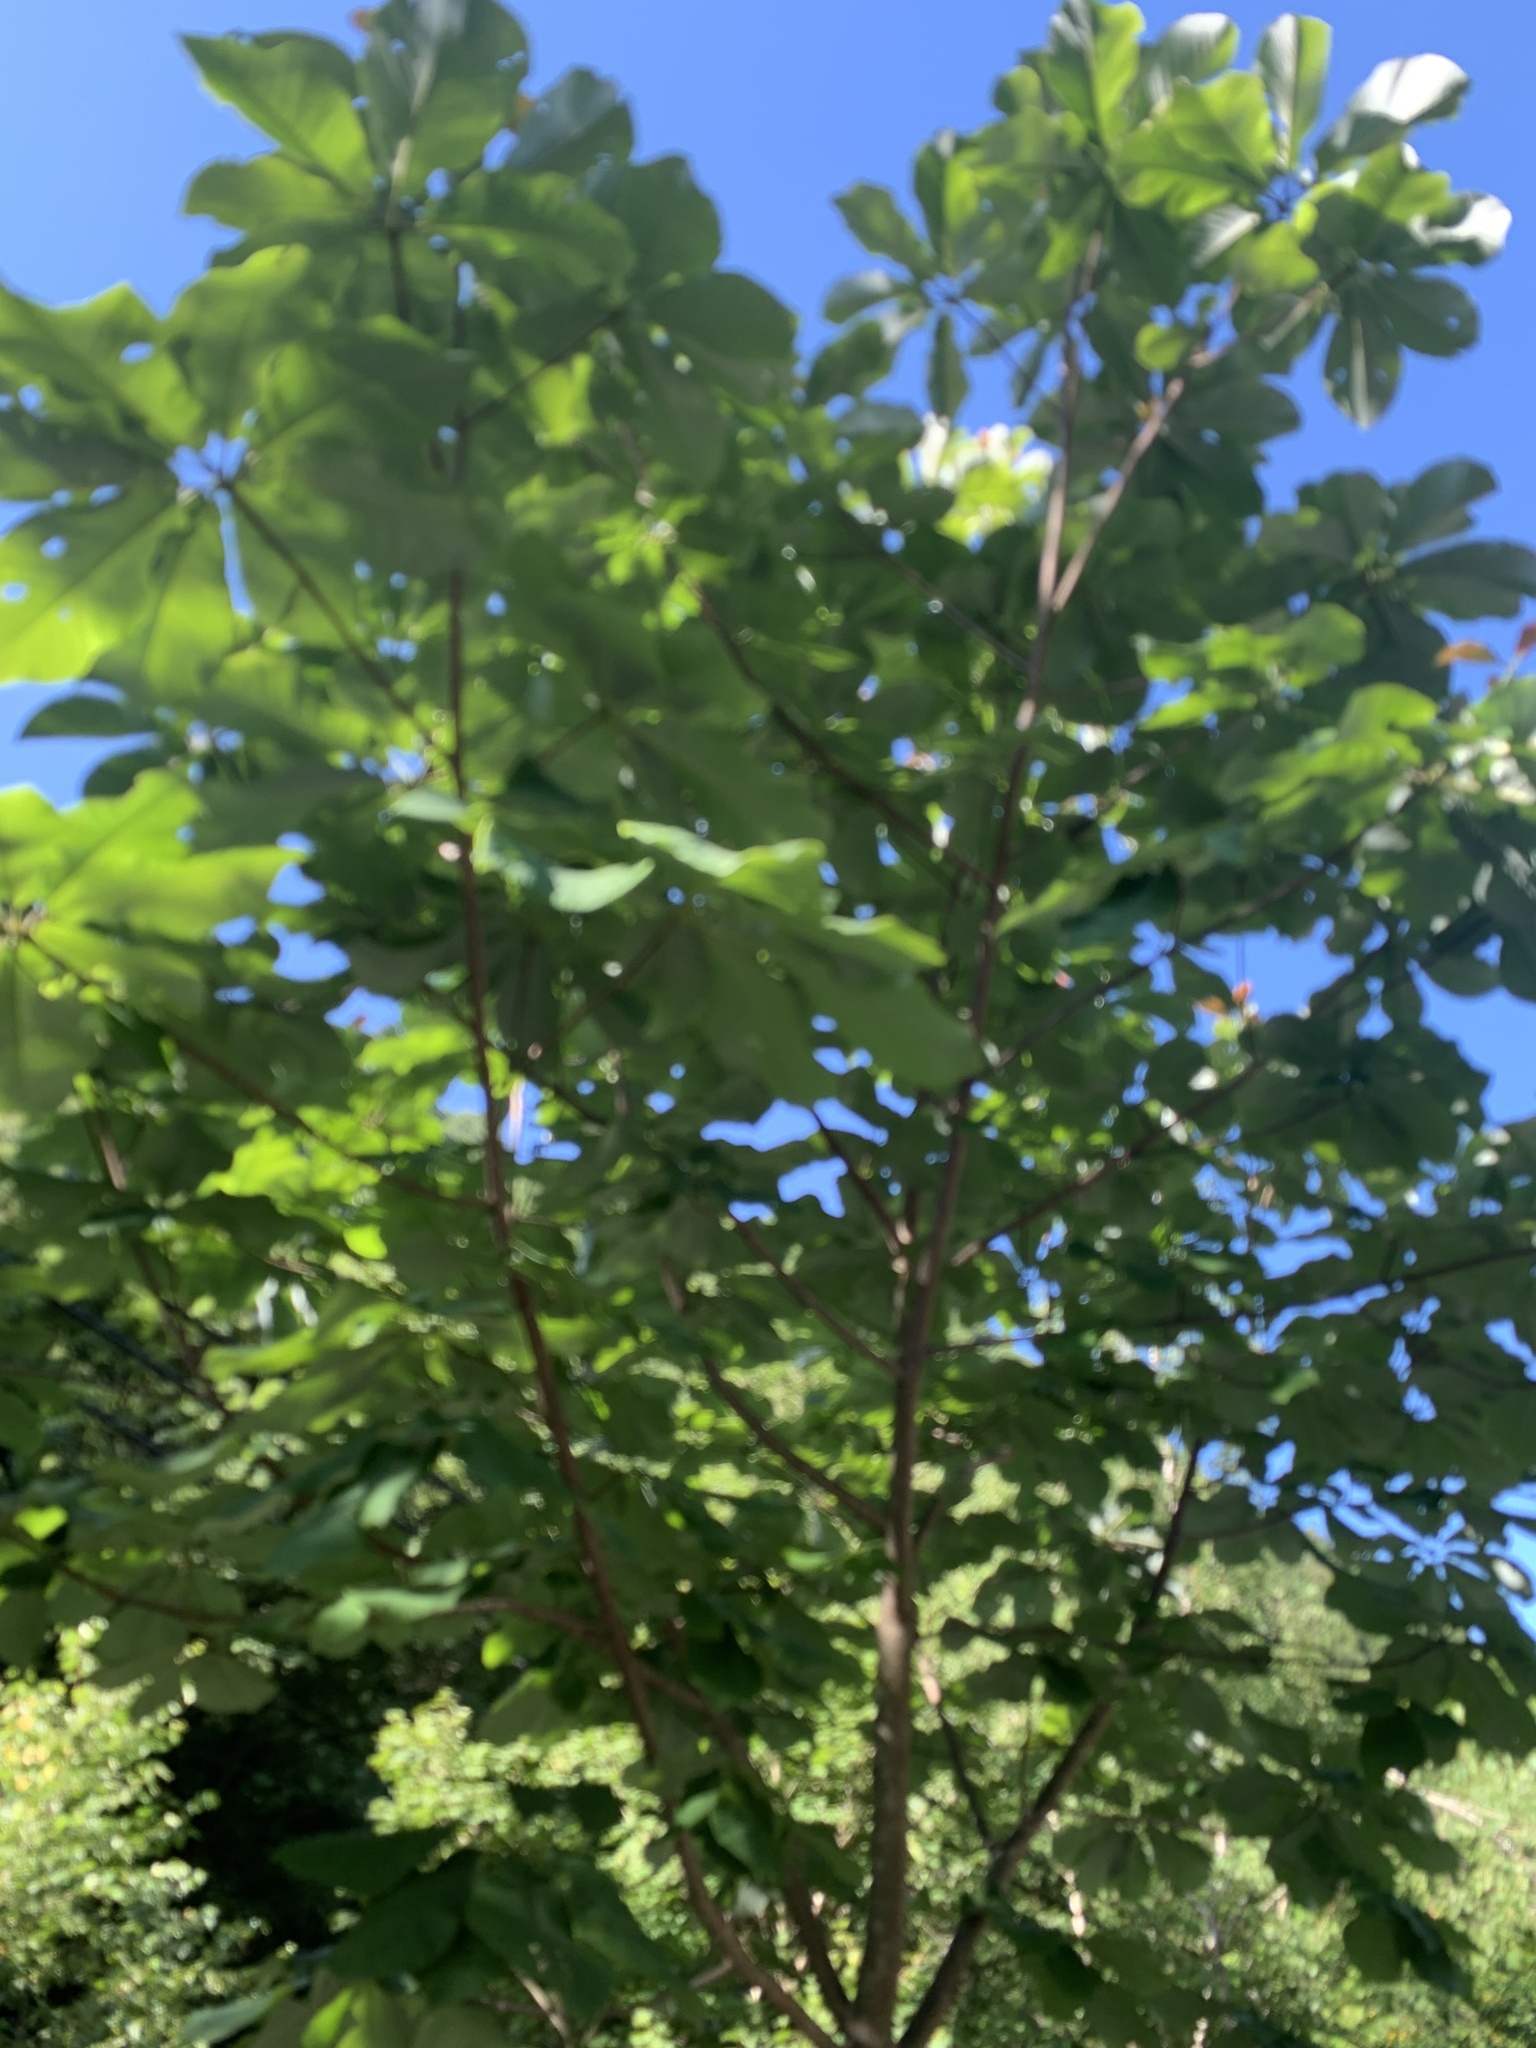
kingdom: Plantae
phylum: Tracheophyta
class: Magnoliopsida
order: Magnoliales
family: Magnoliaceae
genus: Magnolia
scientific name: Magnolia obovata
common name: Japanese whitebark magnolia
